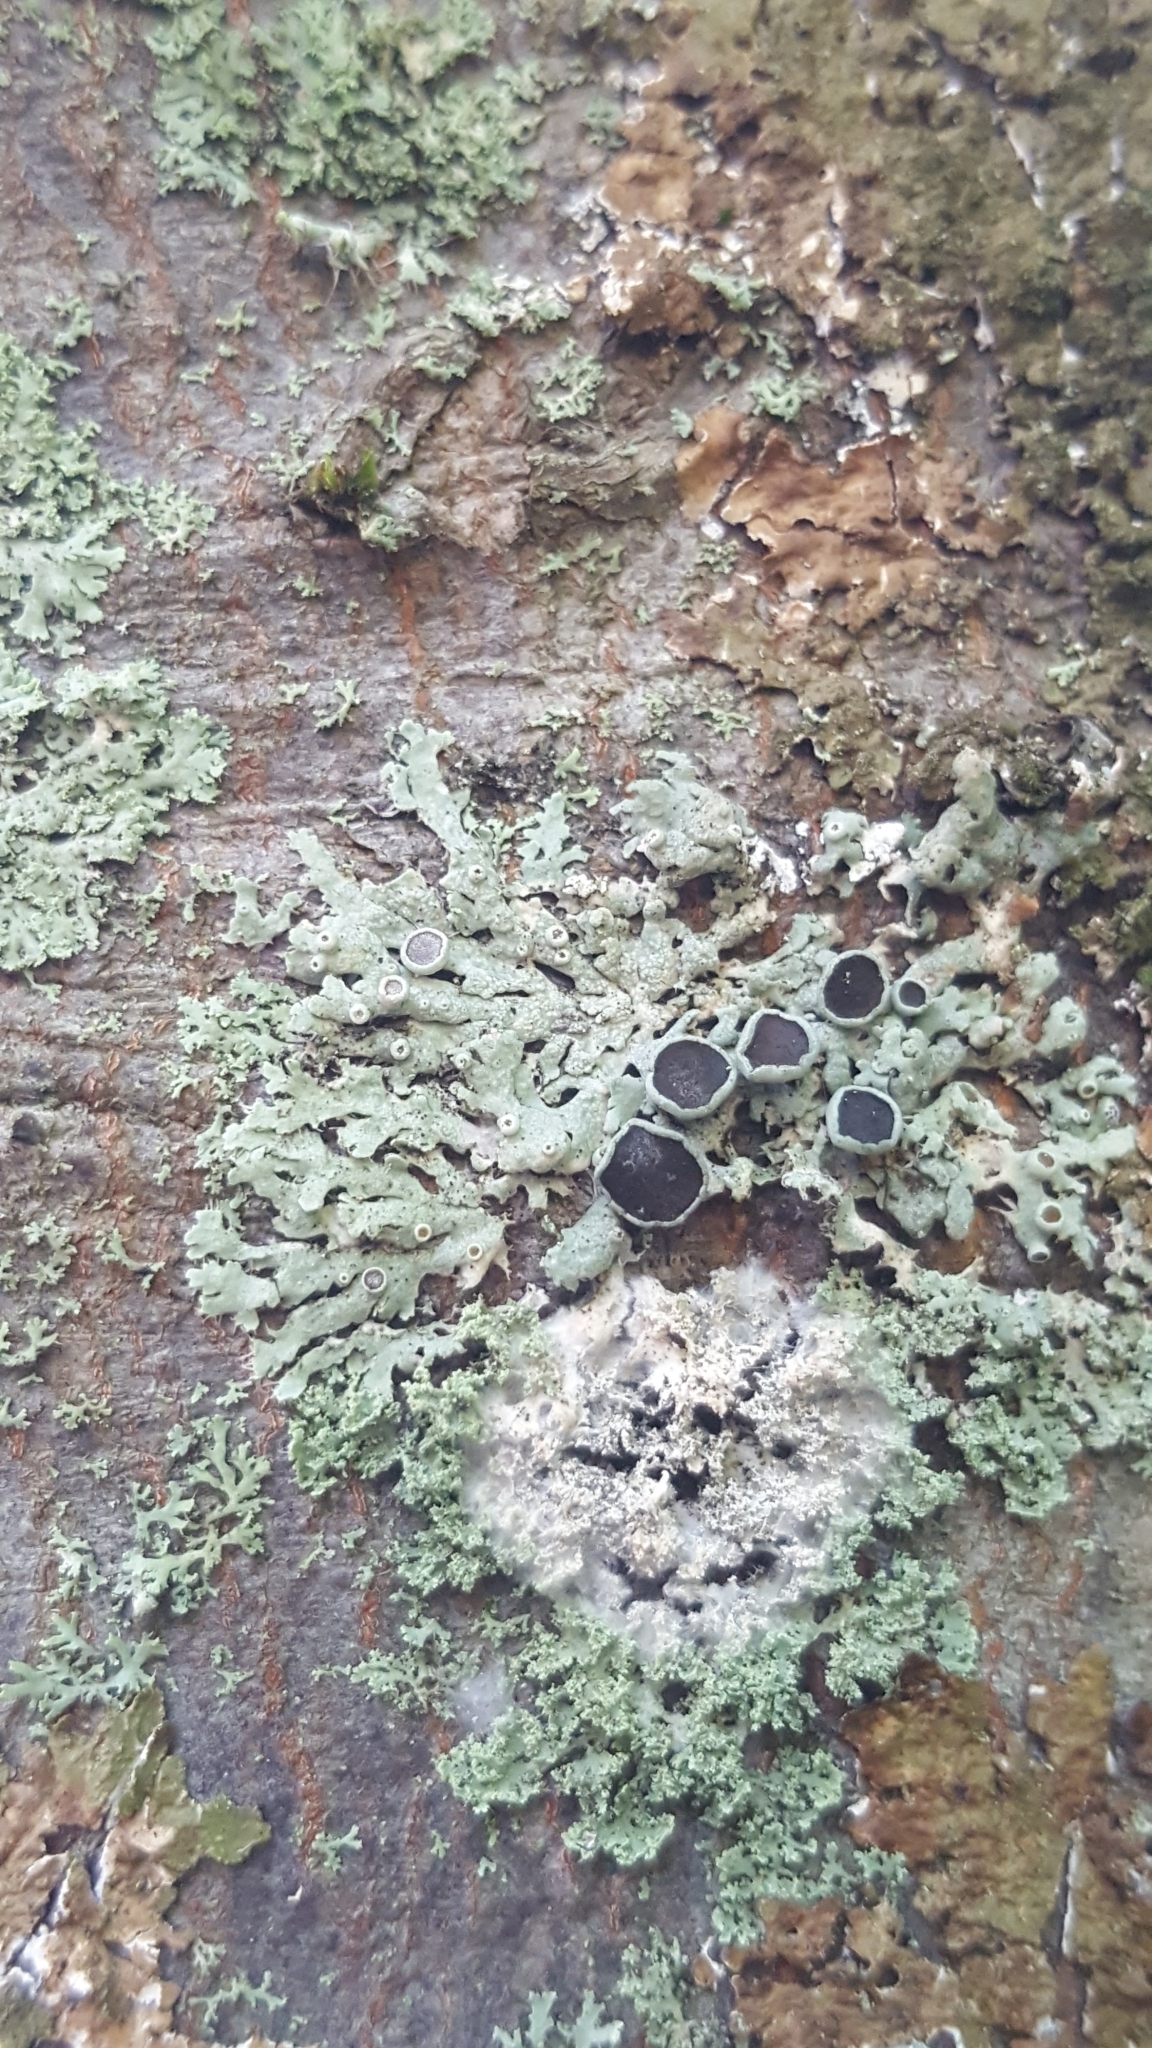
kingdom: Fungi
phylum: Ascomycota
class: Lecanoromycetes
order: Caliciales
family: Physciaceae
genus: Physcia
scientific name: Physcia aipolia
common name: Hoary rosette lichen
